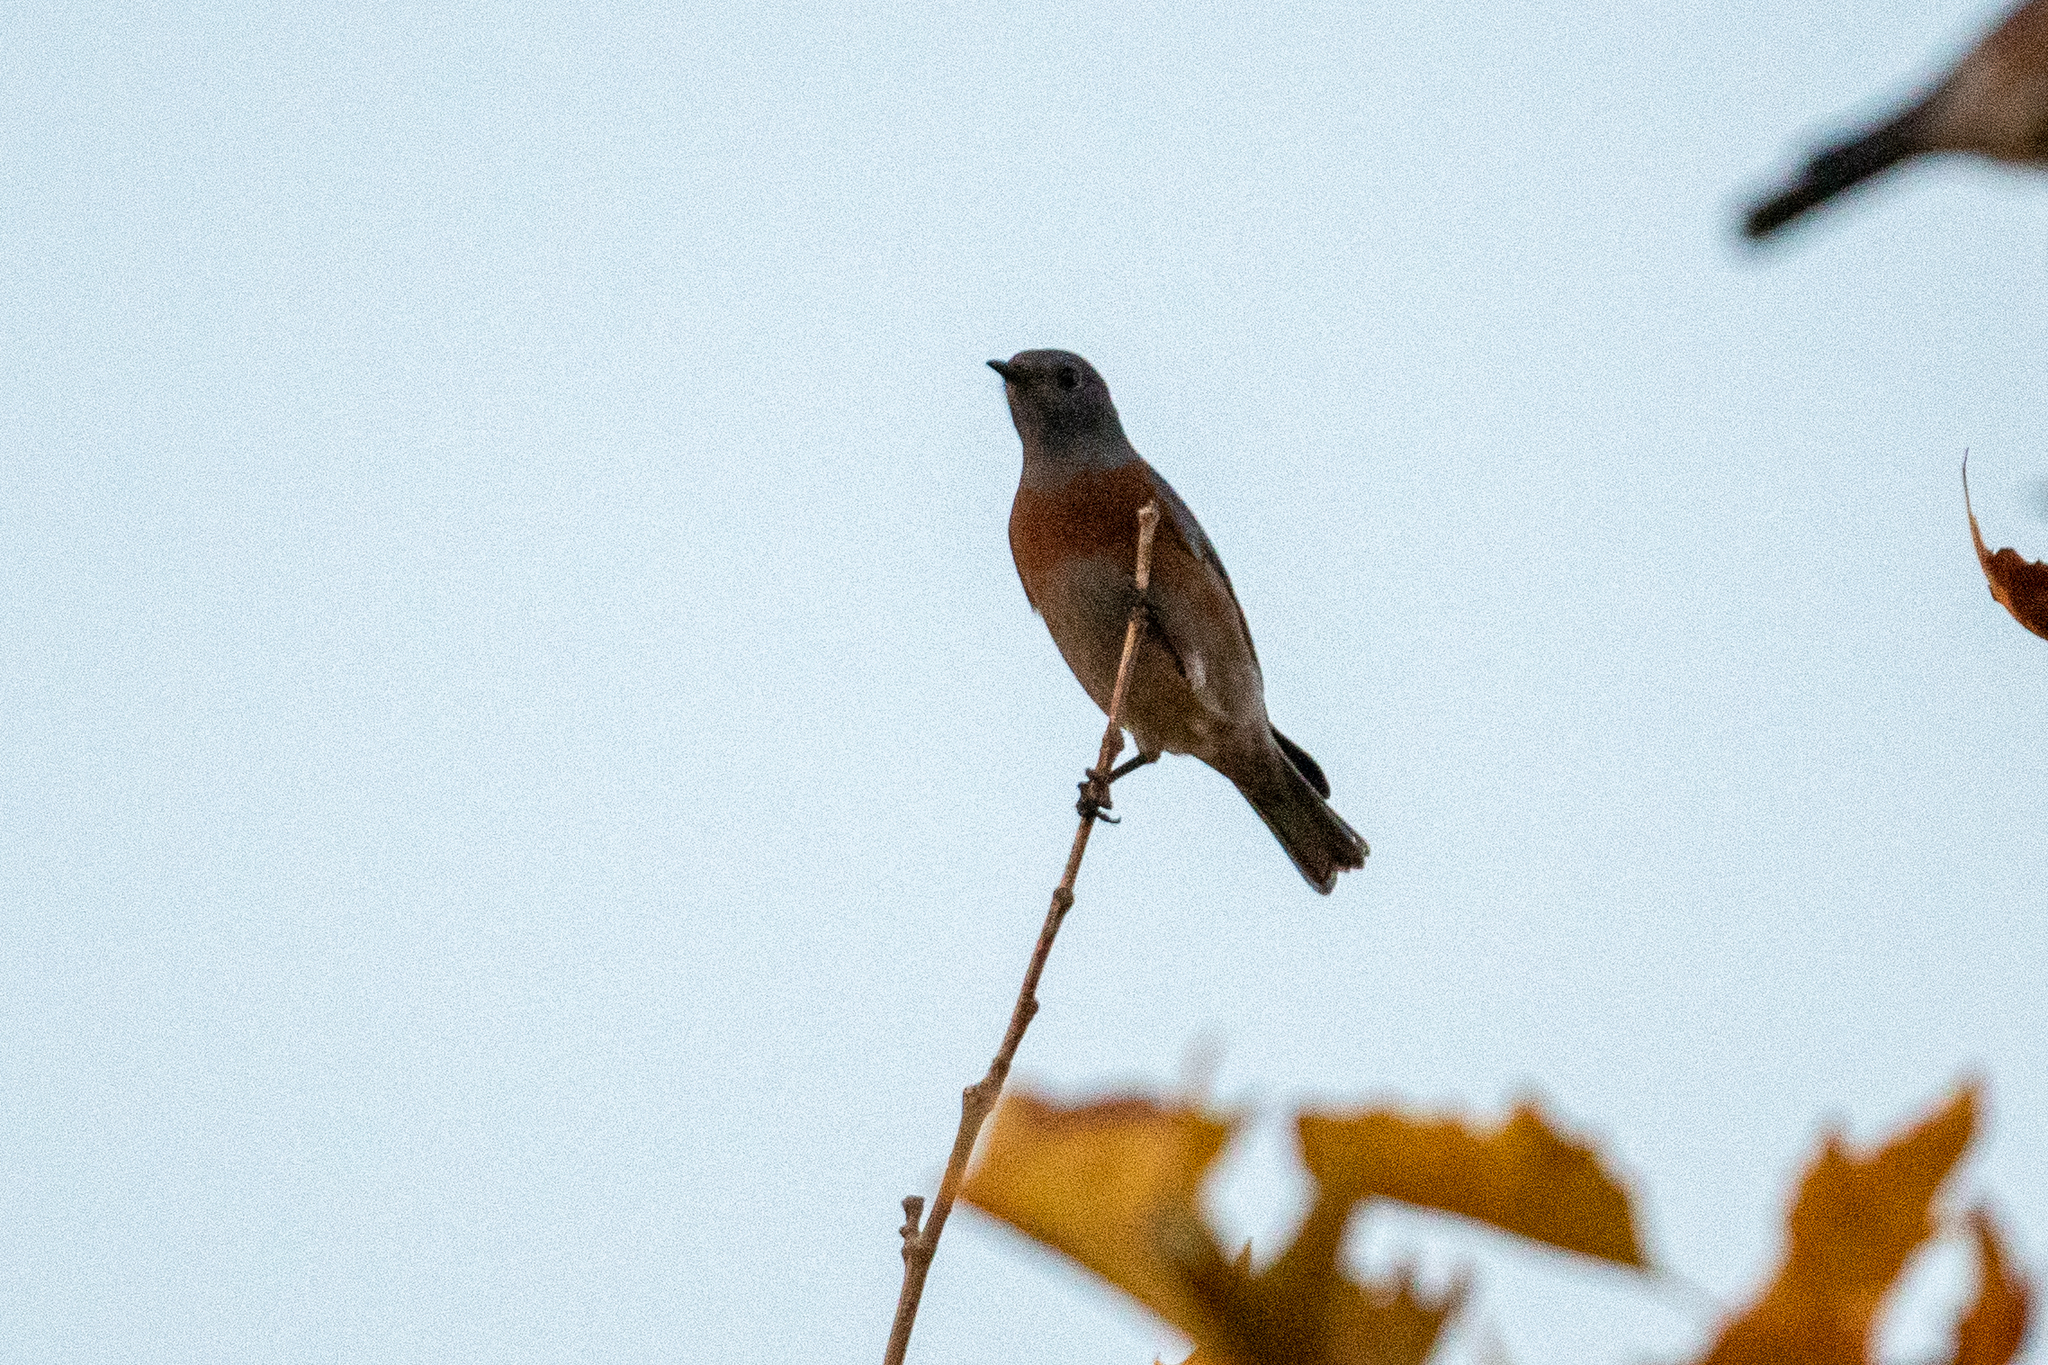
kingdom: Animalia
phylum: Chordata
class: Aves
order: Passeriformes
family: Turdidae
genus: Sialia
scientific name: Sialia mexicana
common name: Western bluebird
